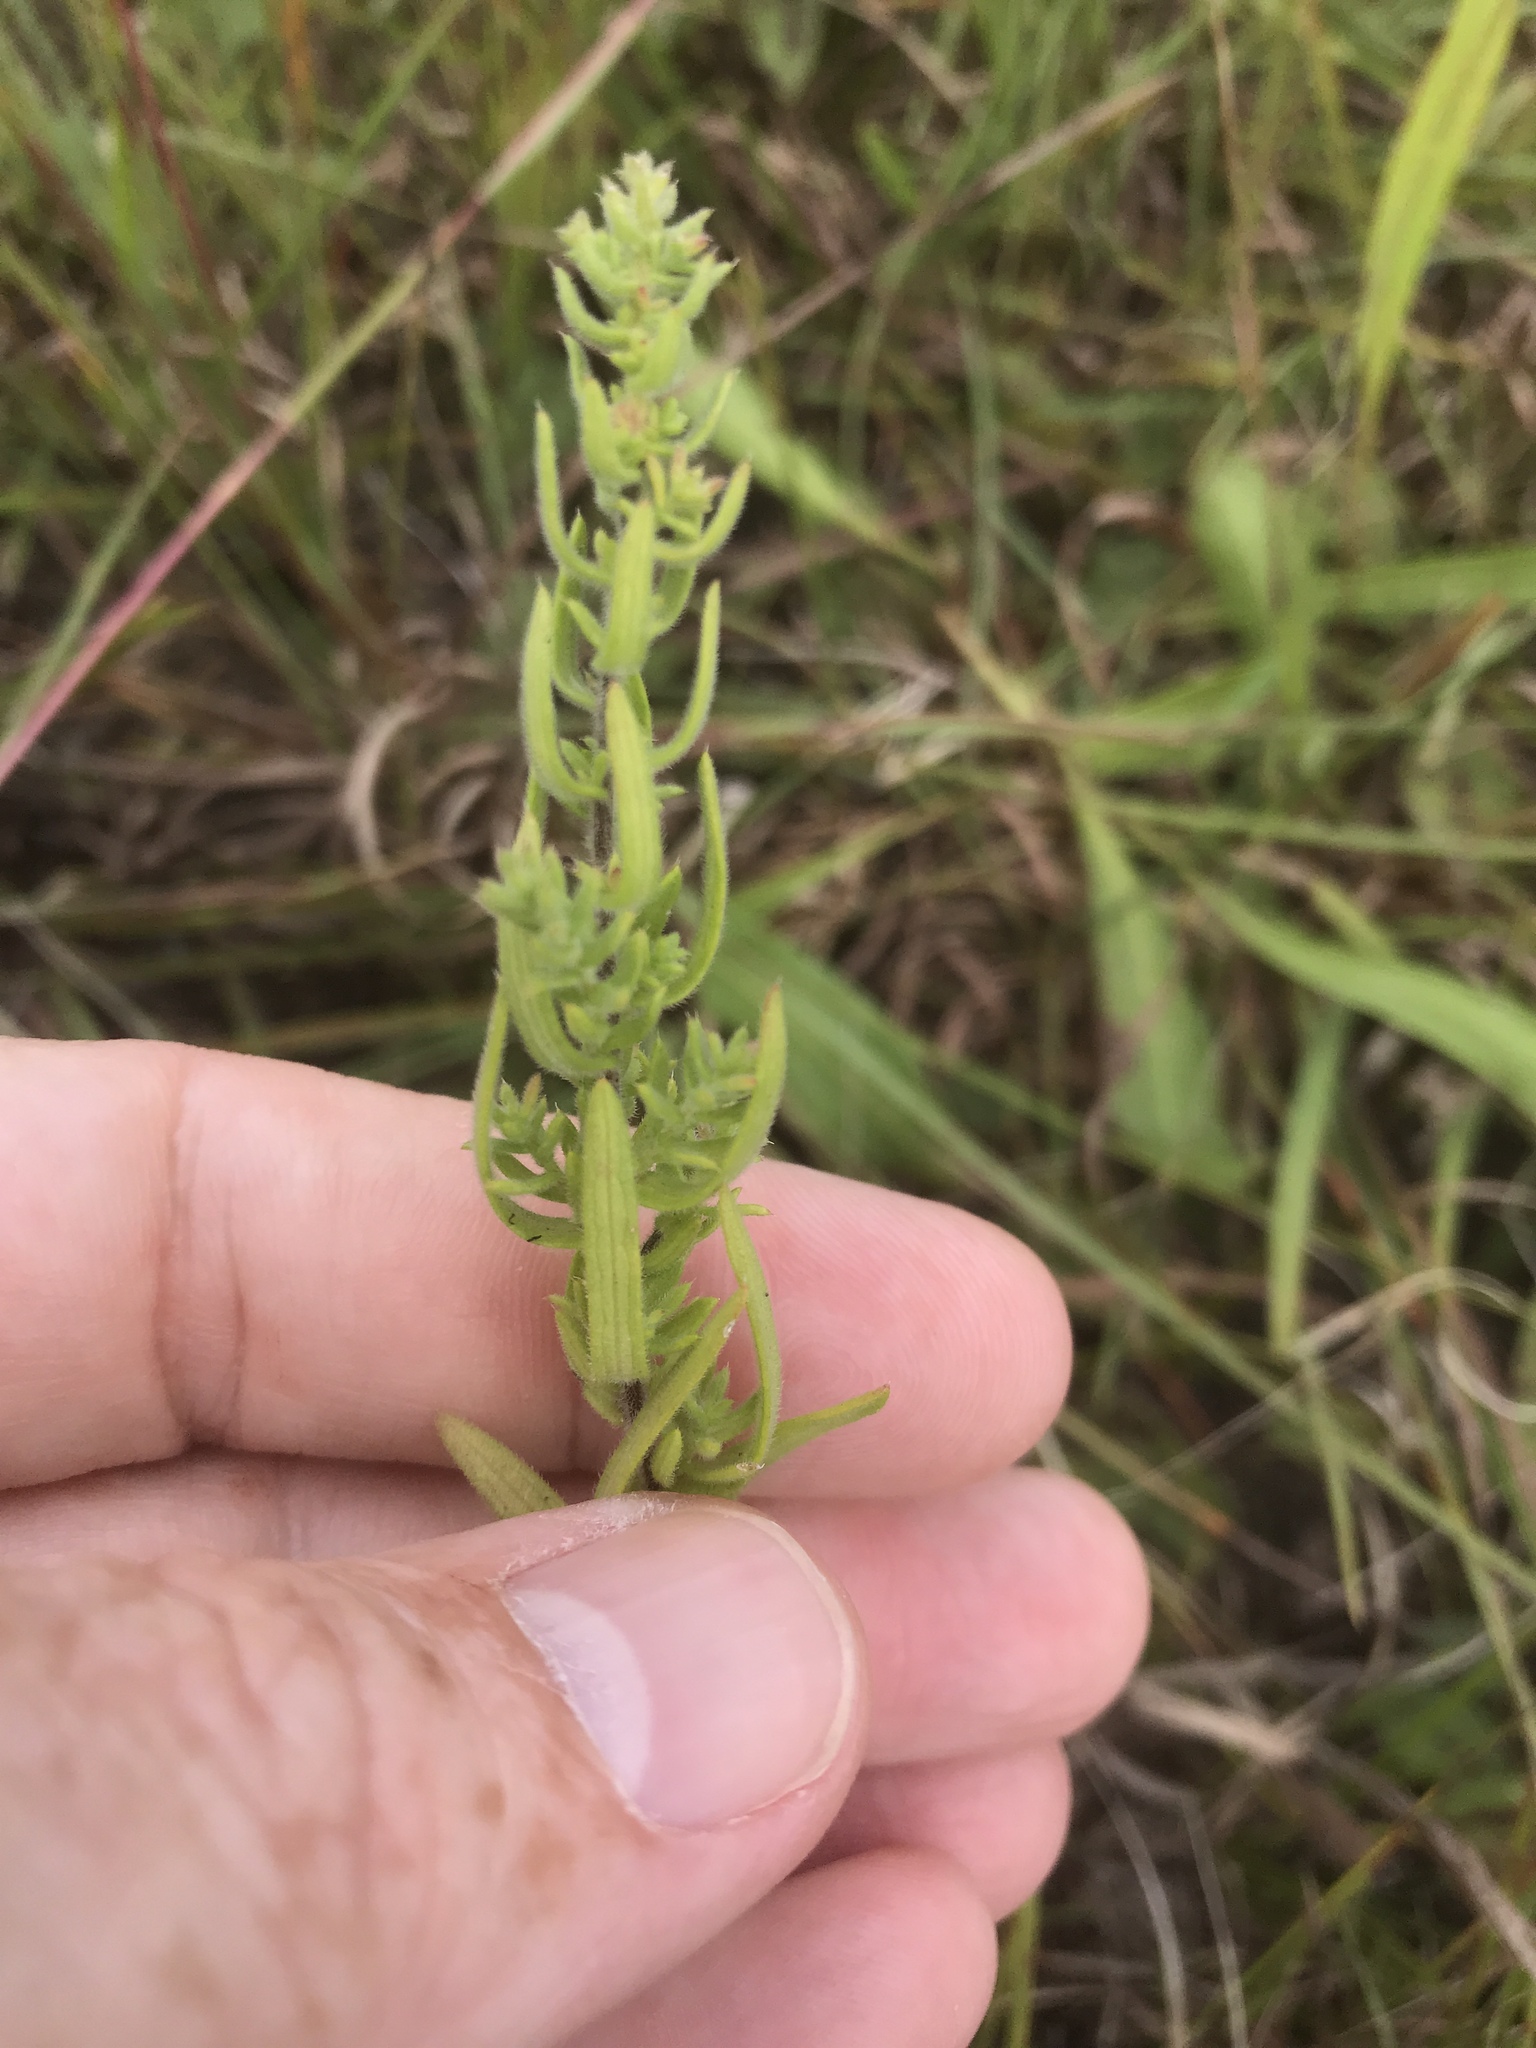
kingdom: Plantae
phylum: Tracheophyta
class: Magnoliopsida
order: Asterales
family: Asteraceae
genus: Symphyotrichum
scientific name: Symphyotrichum ericoides
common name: Heath aster
